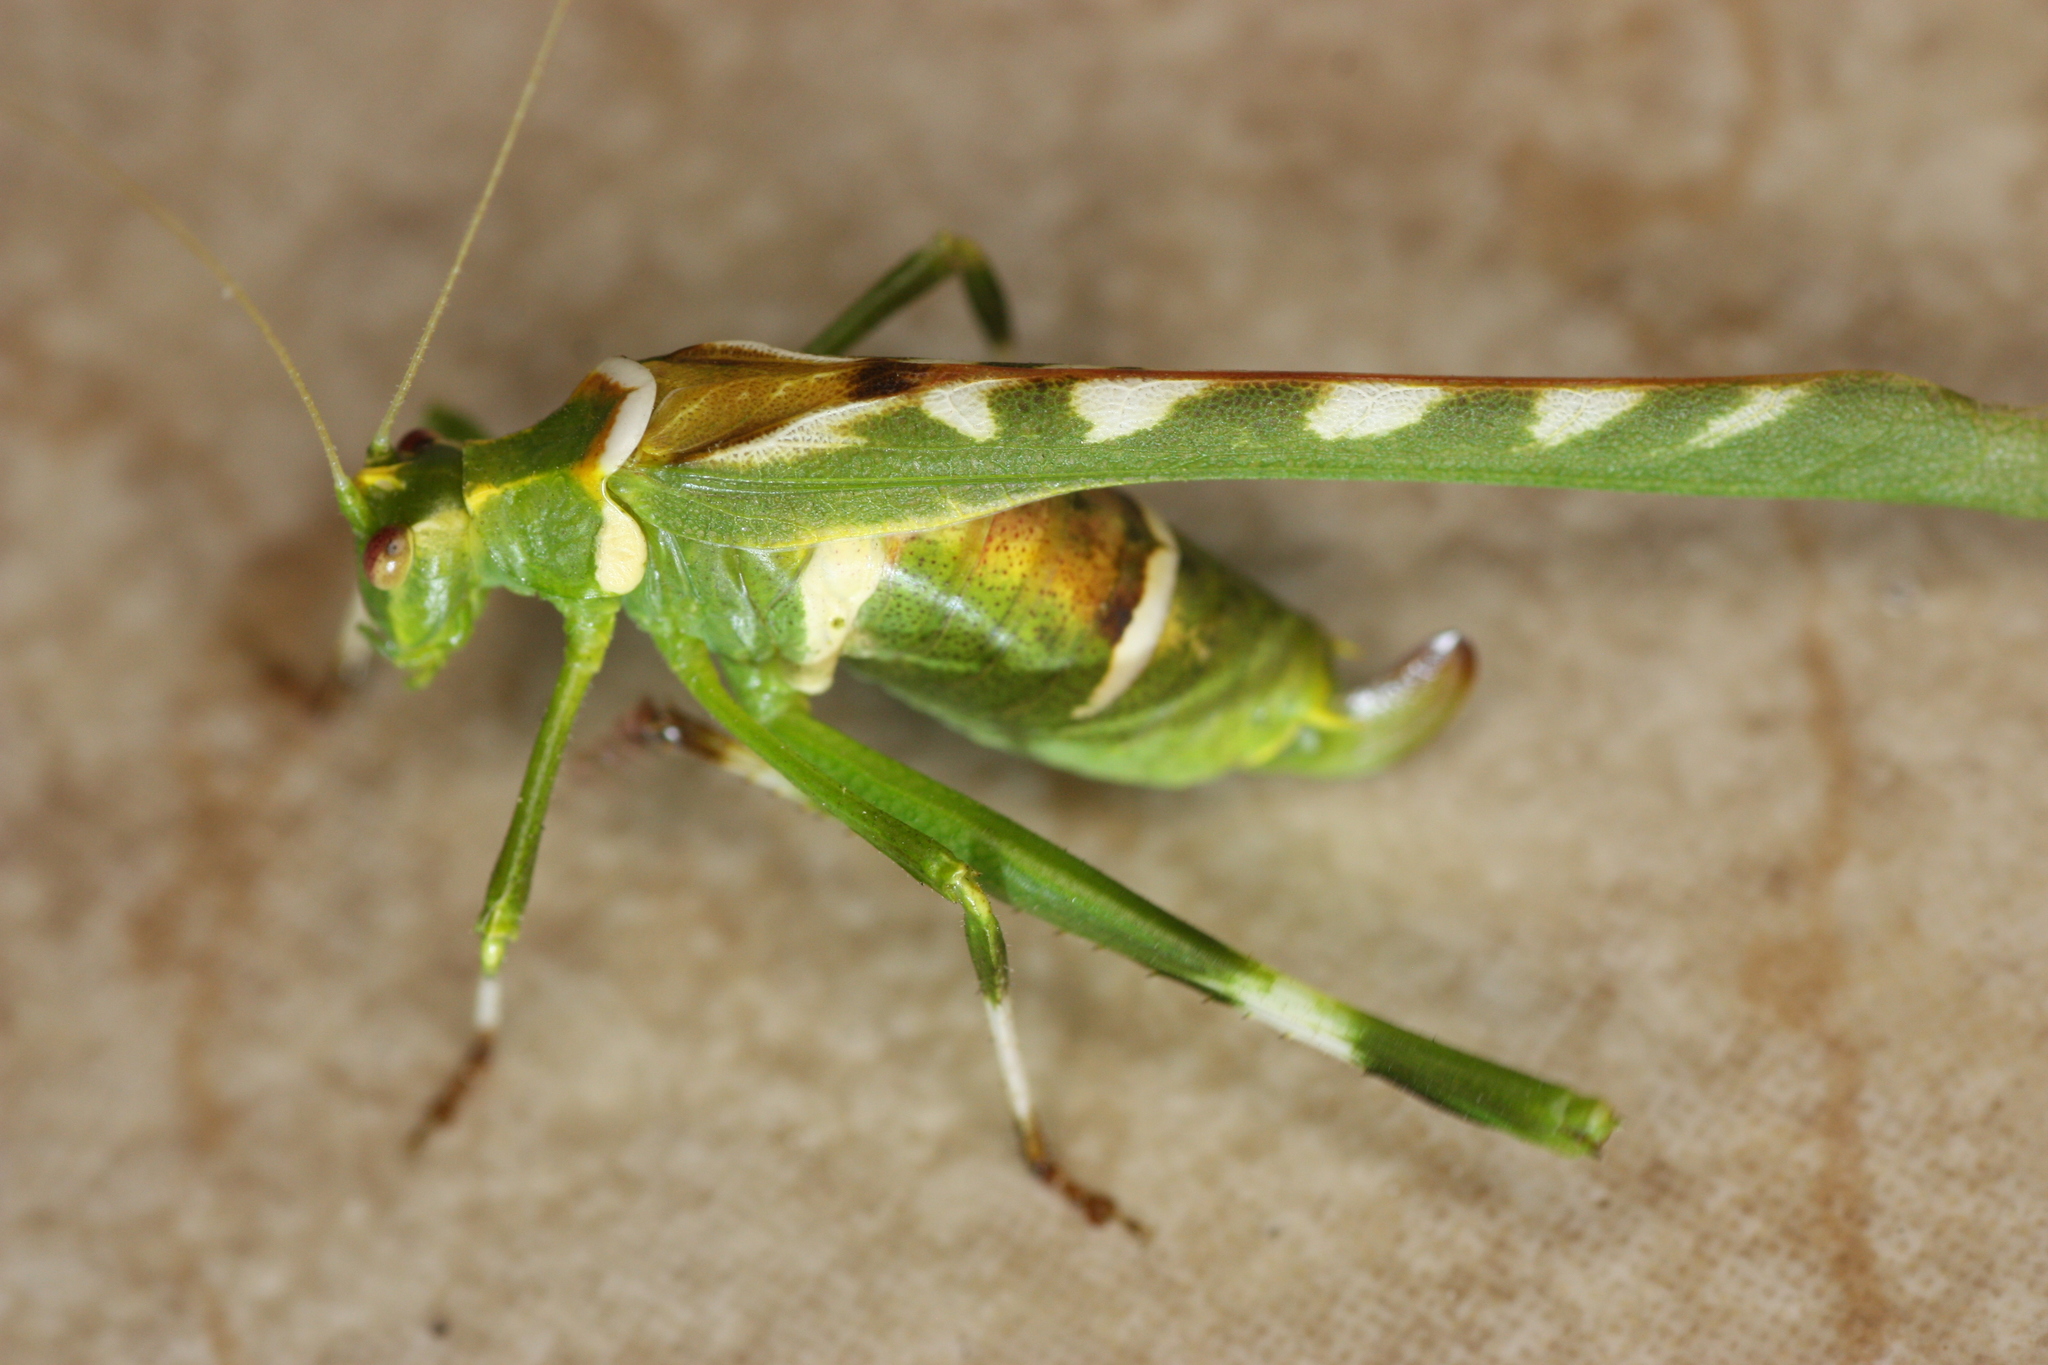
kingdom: Animalia
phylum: Arthropoda
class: Insecta
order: Orthoptera
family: Tettigoniidae
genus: Insara
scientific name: Insara covilleae
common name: Creosote bush katydid
